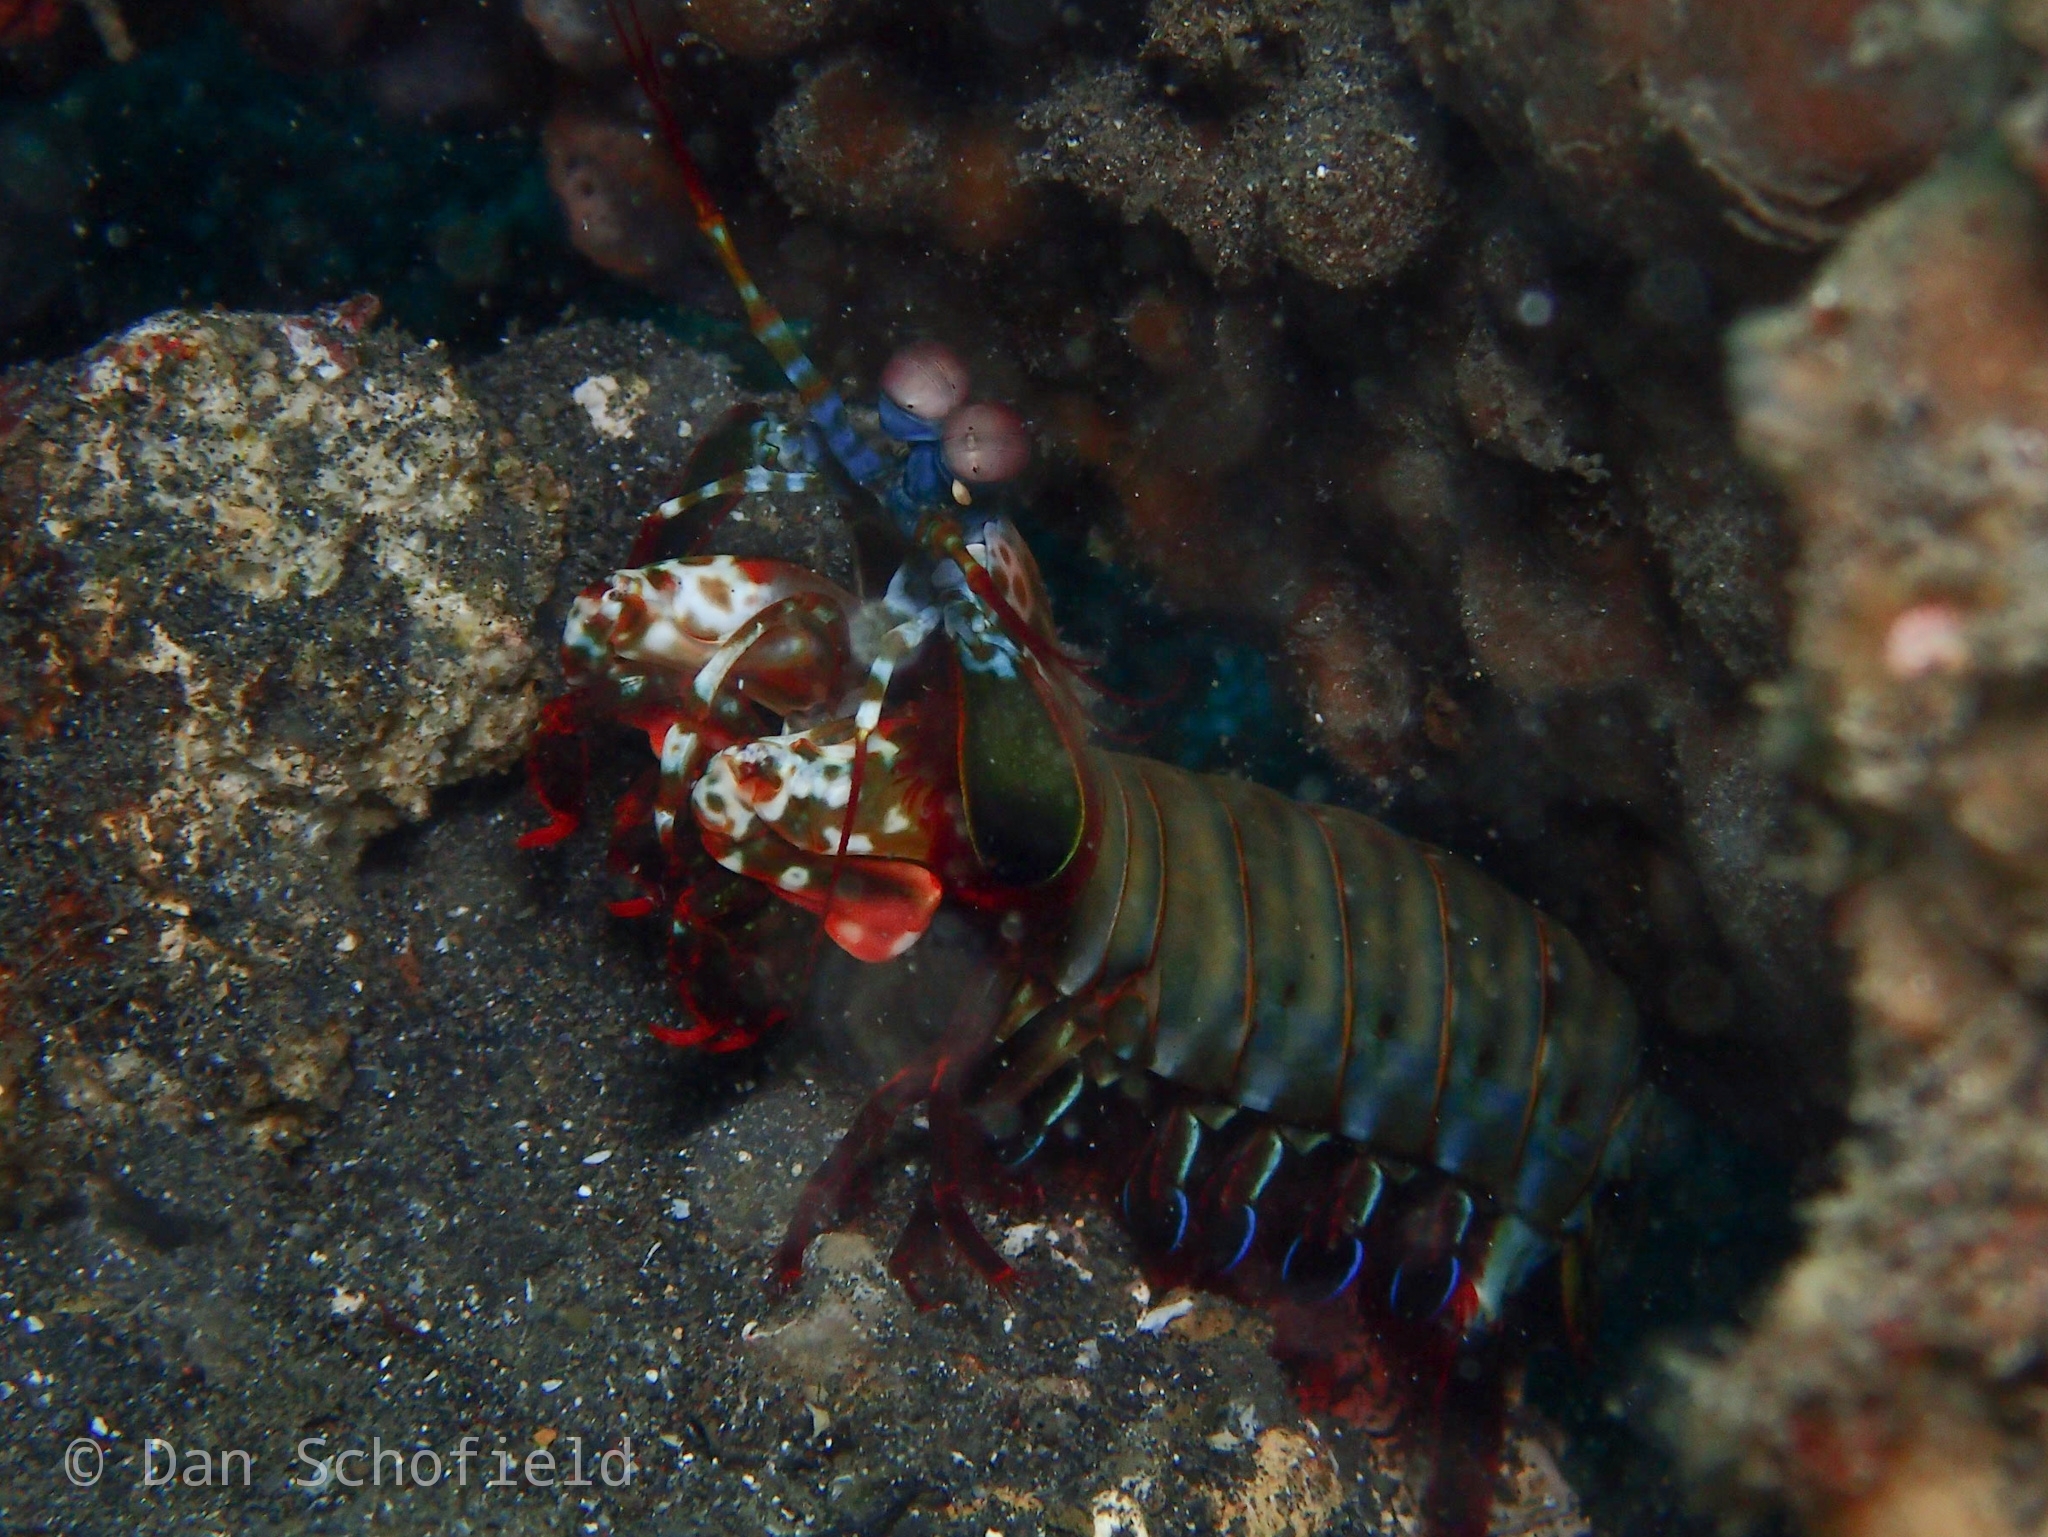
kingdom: Animalia
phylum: Arthropoda
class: Malacostraca
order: Stomatopoda
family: Odontodactylidae
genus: Odontodactylus
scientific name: Odontodactylus scyllarus
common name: Peacock mantis shrimp
